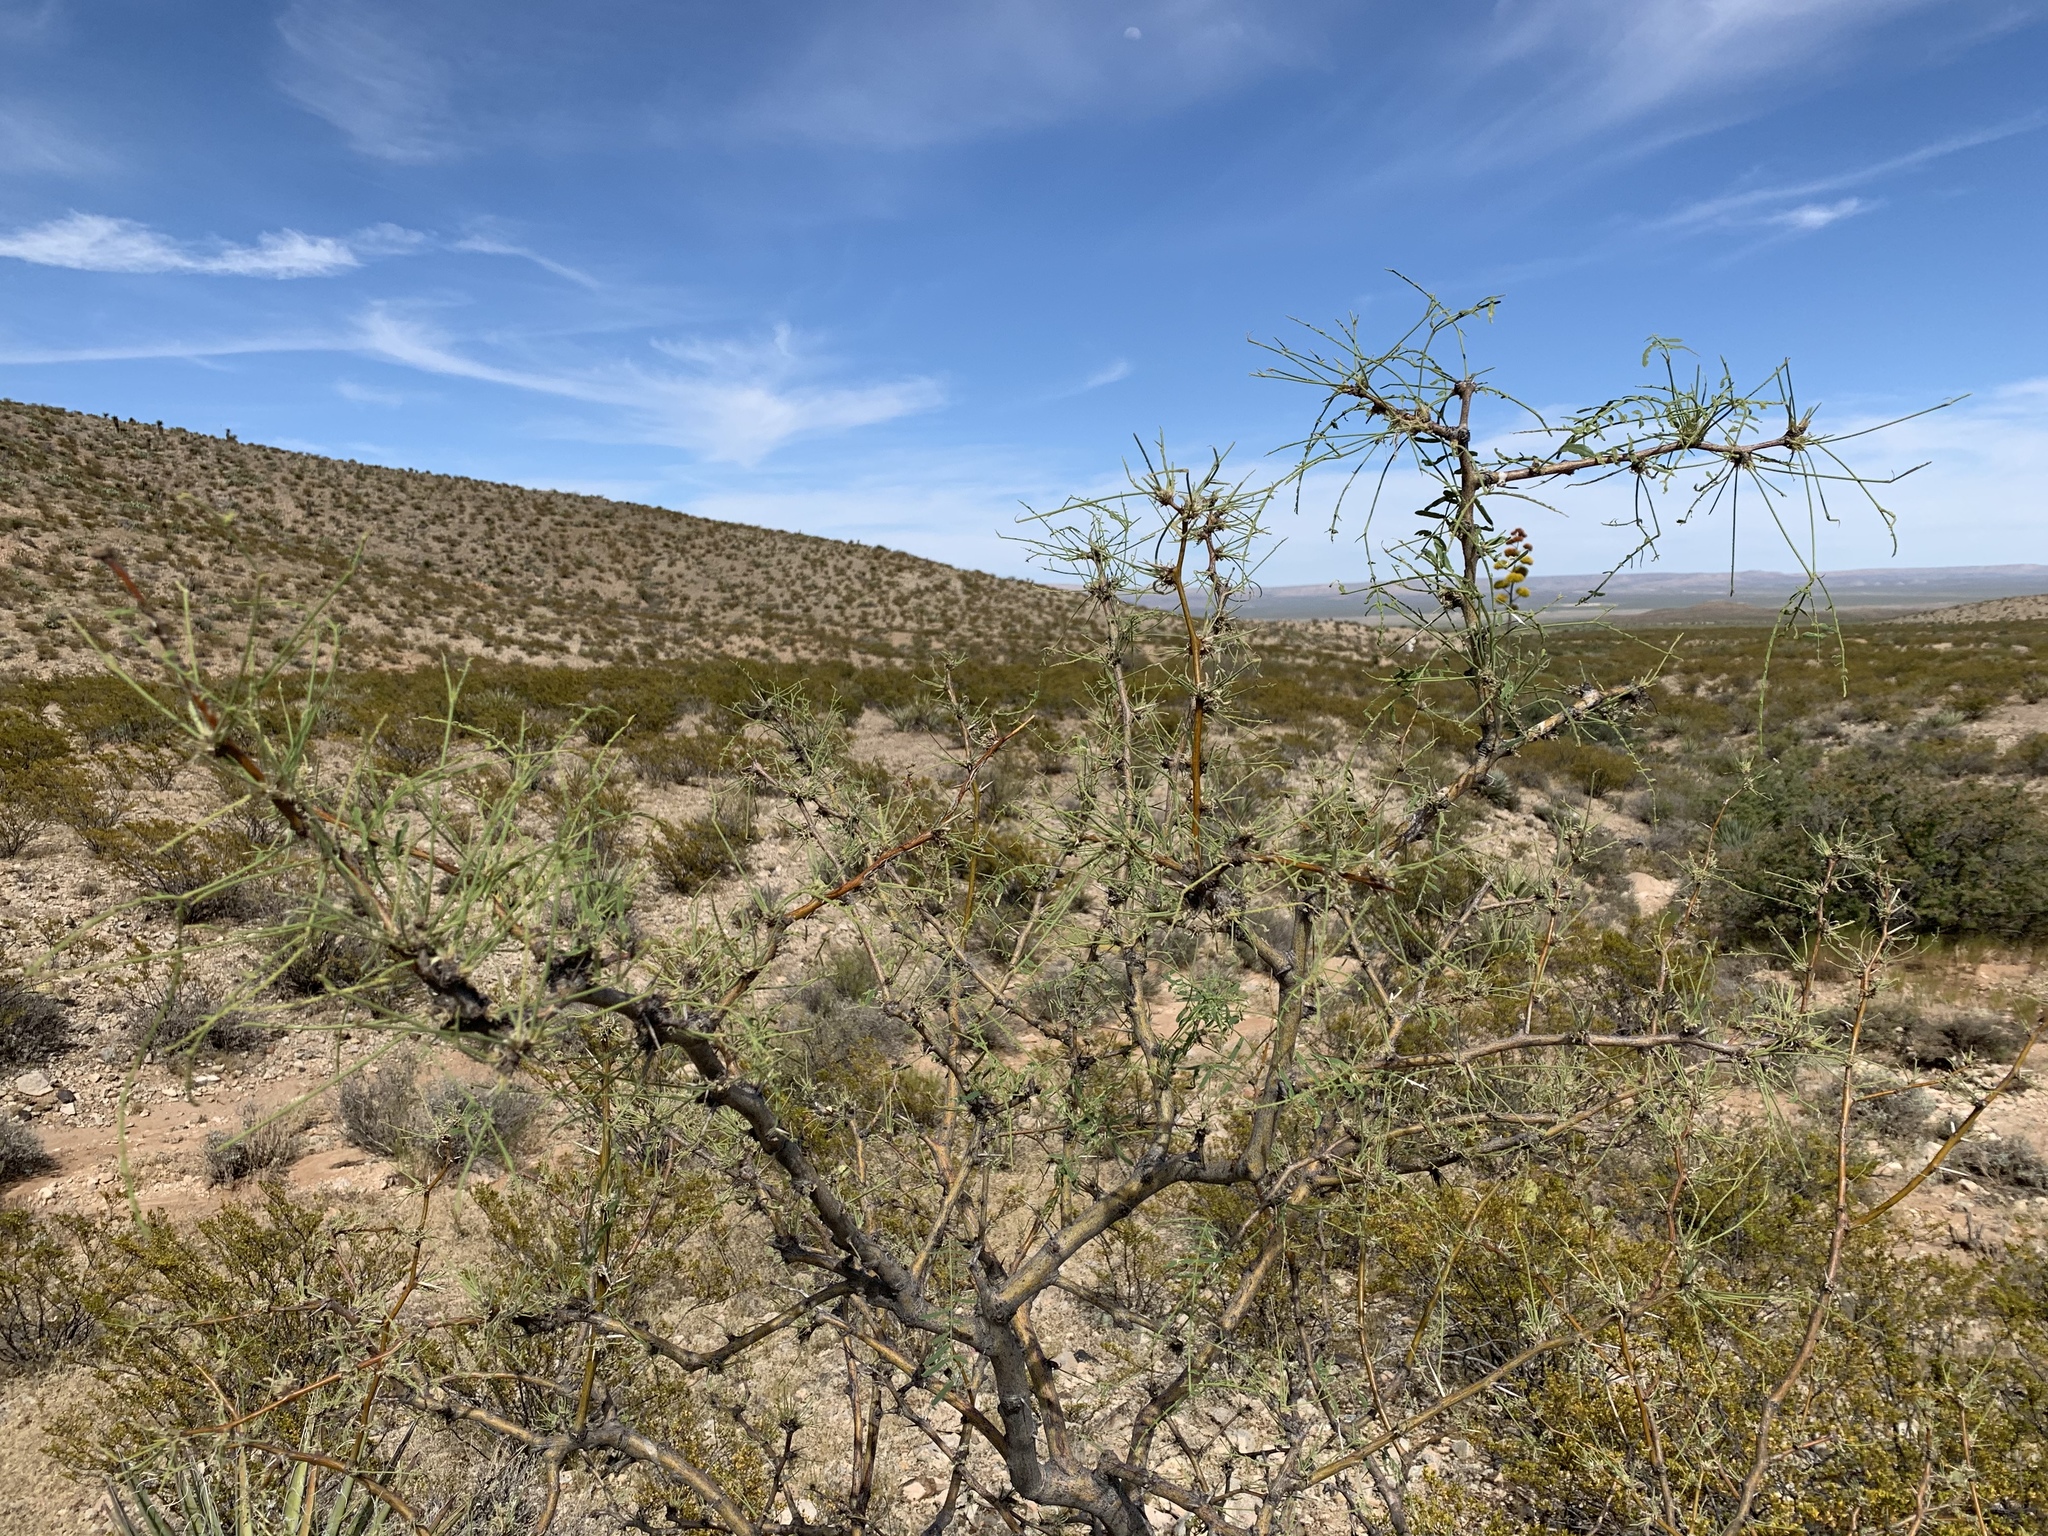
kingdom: Plantae
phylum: Tracheophyta
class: Magnoliopsida
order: Fabales
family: Fabaceae
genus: Prosopis
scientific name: Prosopis glandulosa
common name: Honey mesquite
